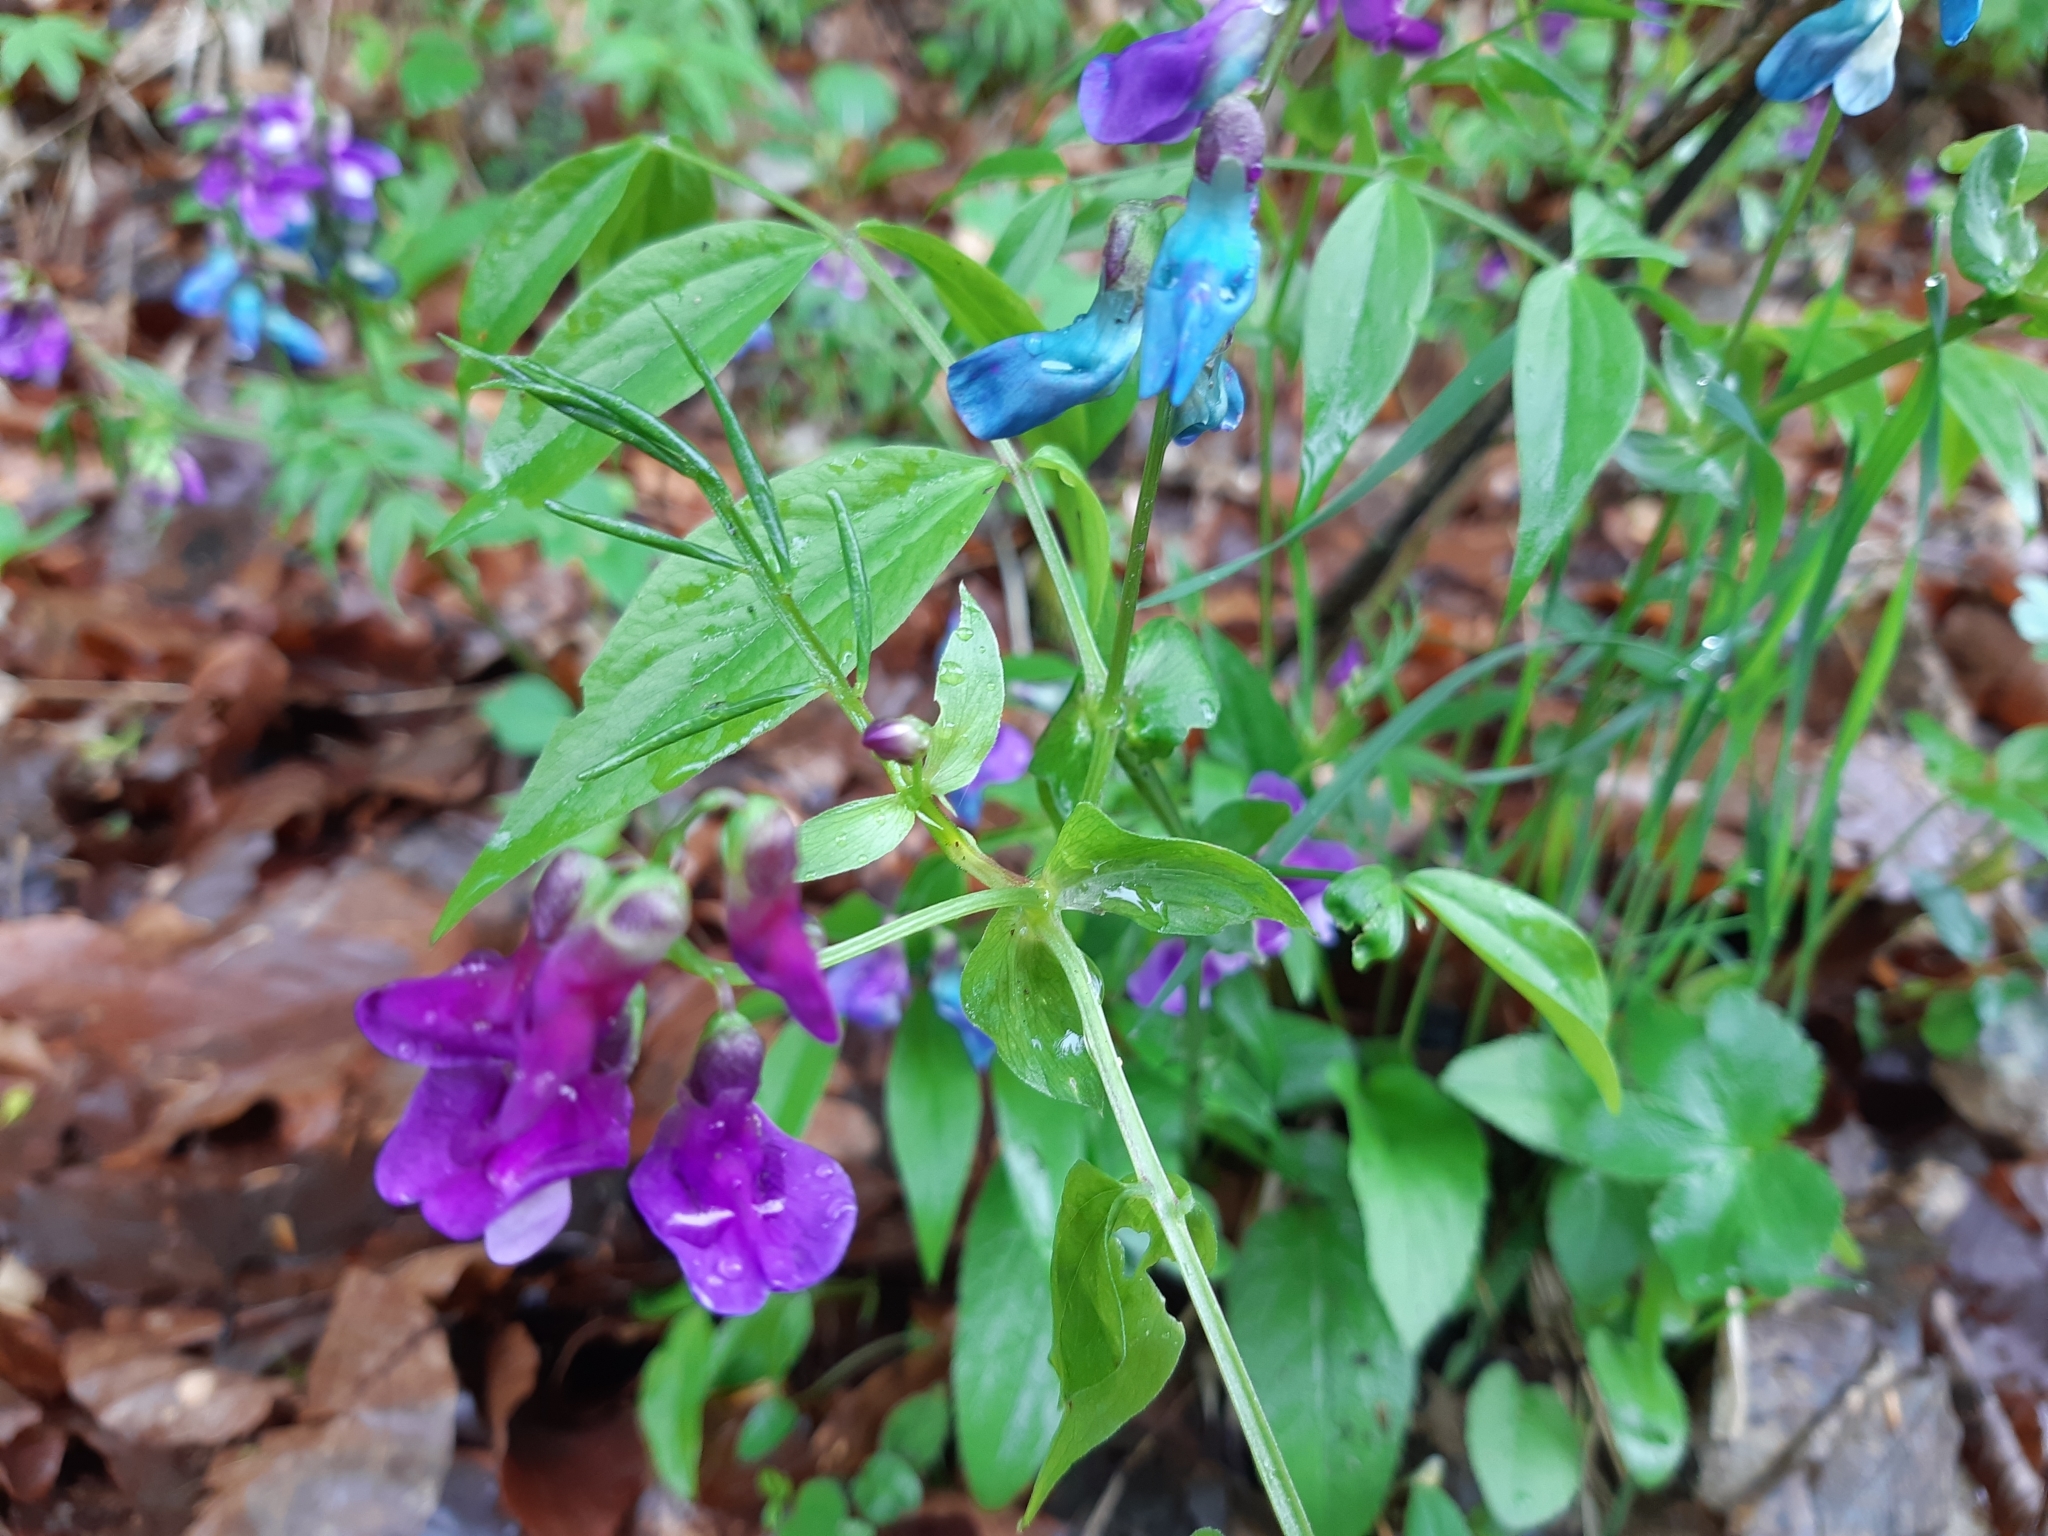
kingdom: Plantae
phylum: Tracheophyta
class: Magnoliopsida
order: Fabales
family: Fabaceae
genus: Lathyrus
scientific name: Lathyrus vernus
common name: Spring pea
